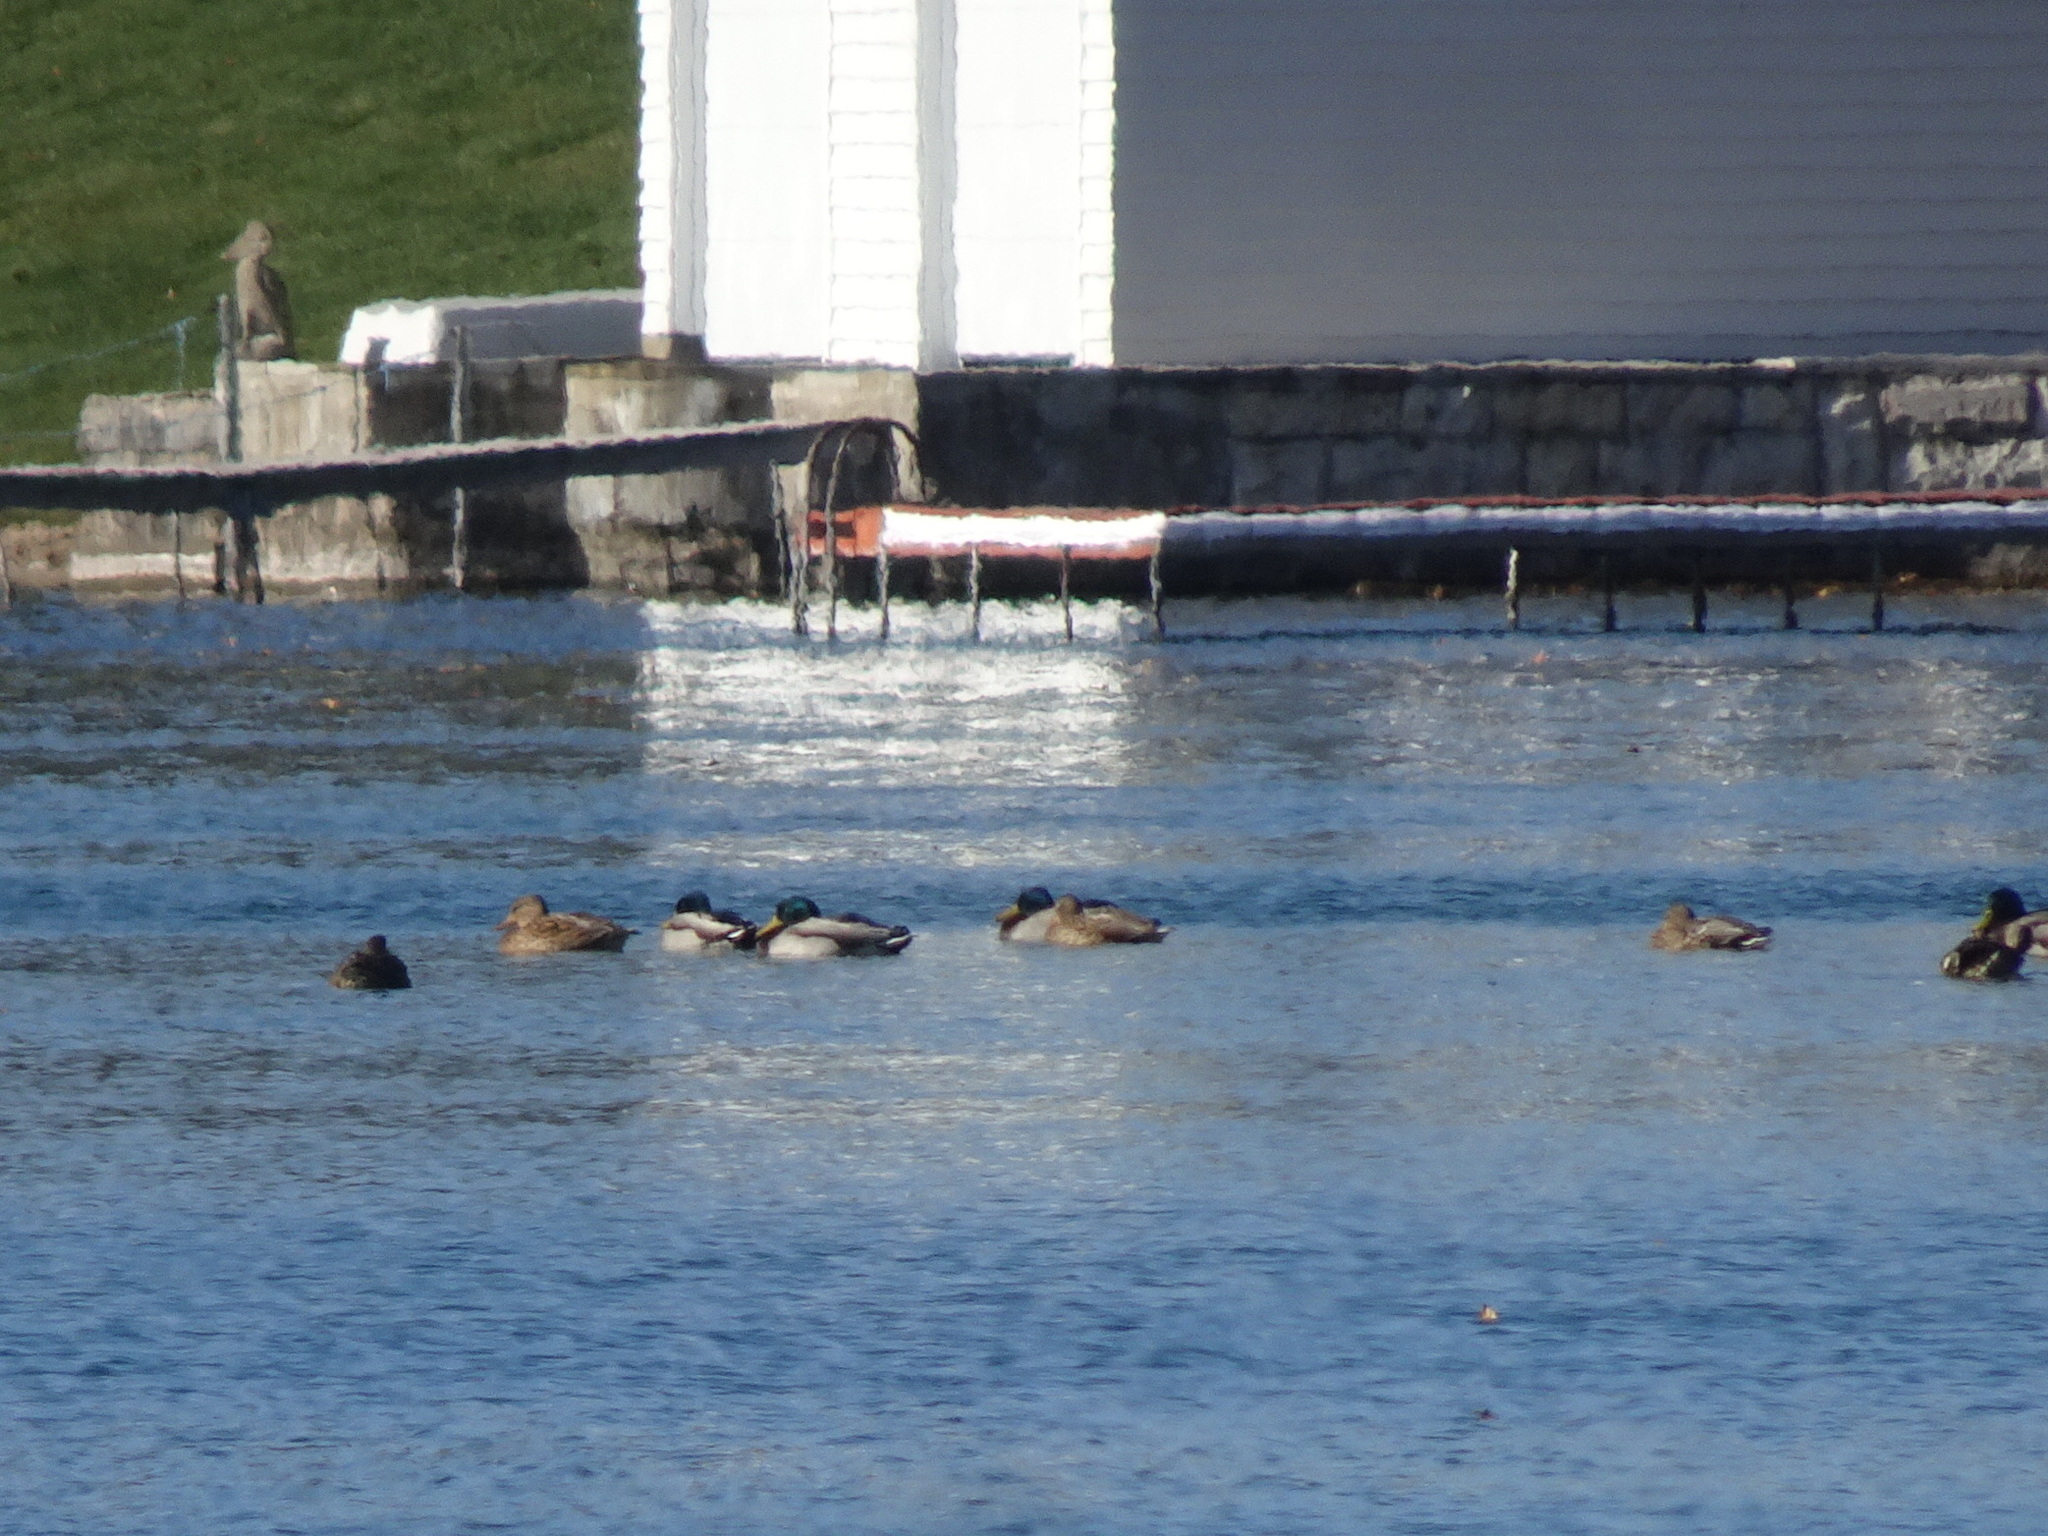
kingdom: Animalia
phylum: Chordata
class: Aves
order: Anseriformes
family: Anatidae
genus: Anas
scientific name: Anas platyrhynchos
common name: Mallard
